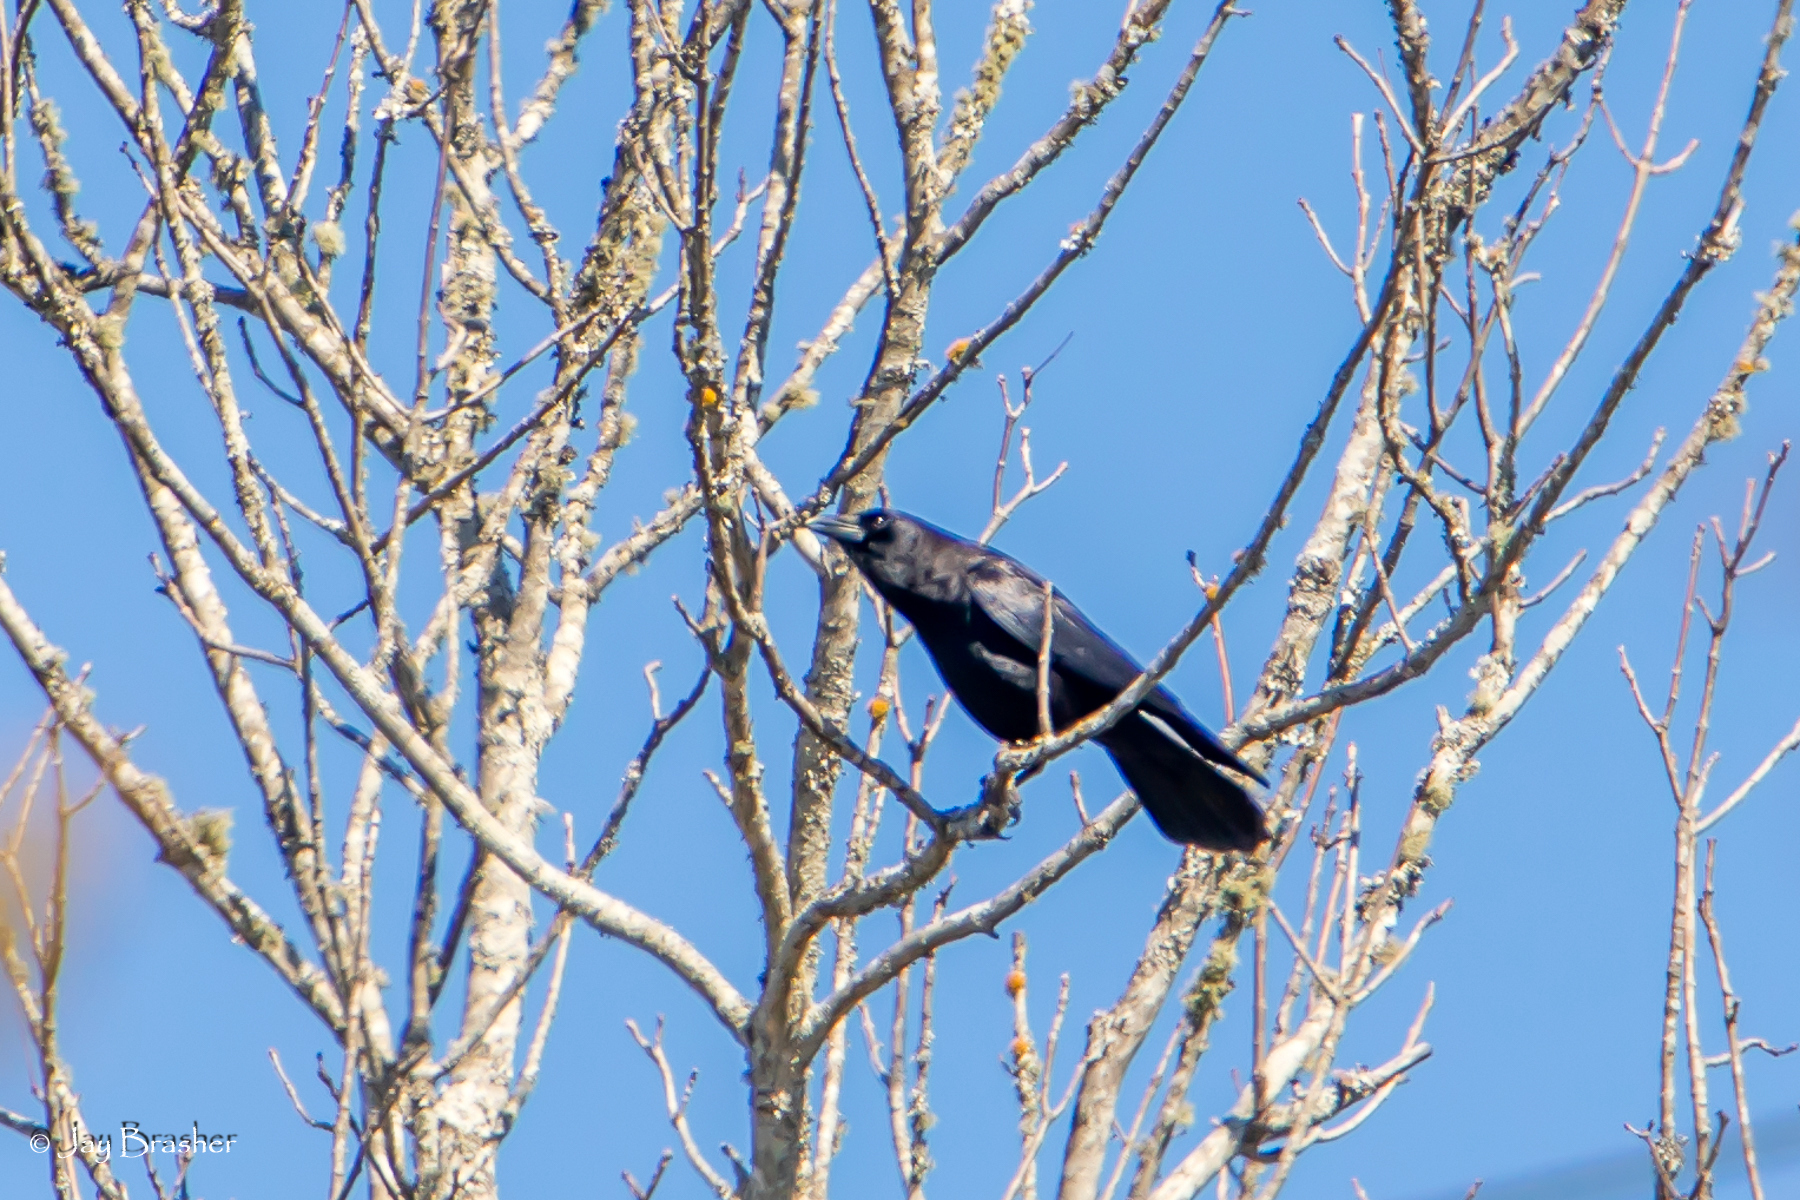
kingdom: Animalia
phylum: Chordata
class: Aves
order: Passeriformes
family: Corvidae
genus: Corvus
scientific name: Corvus brachyrhynchos
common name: American crow
